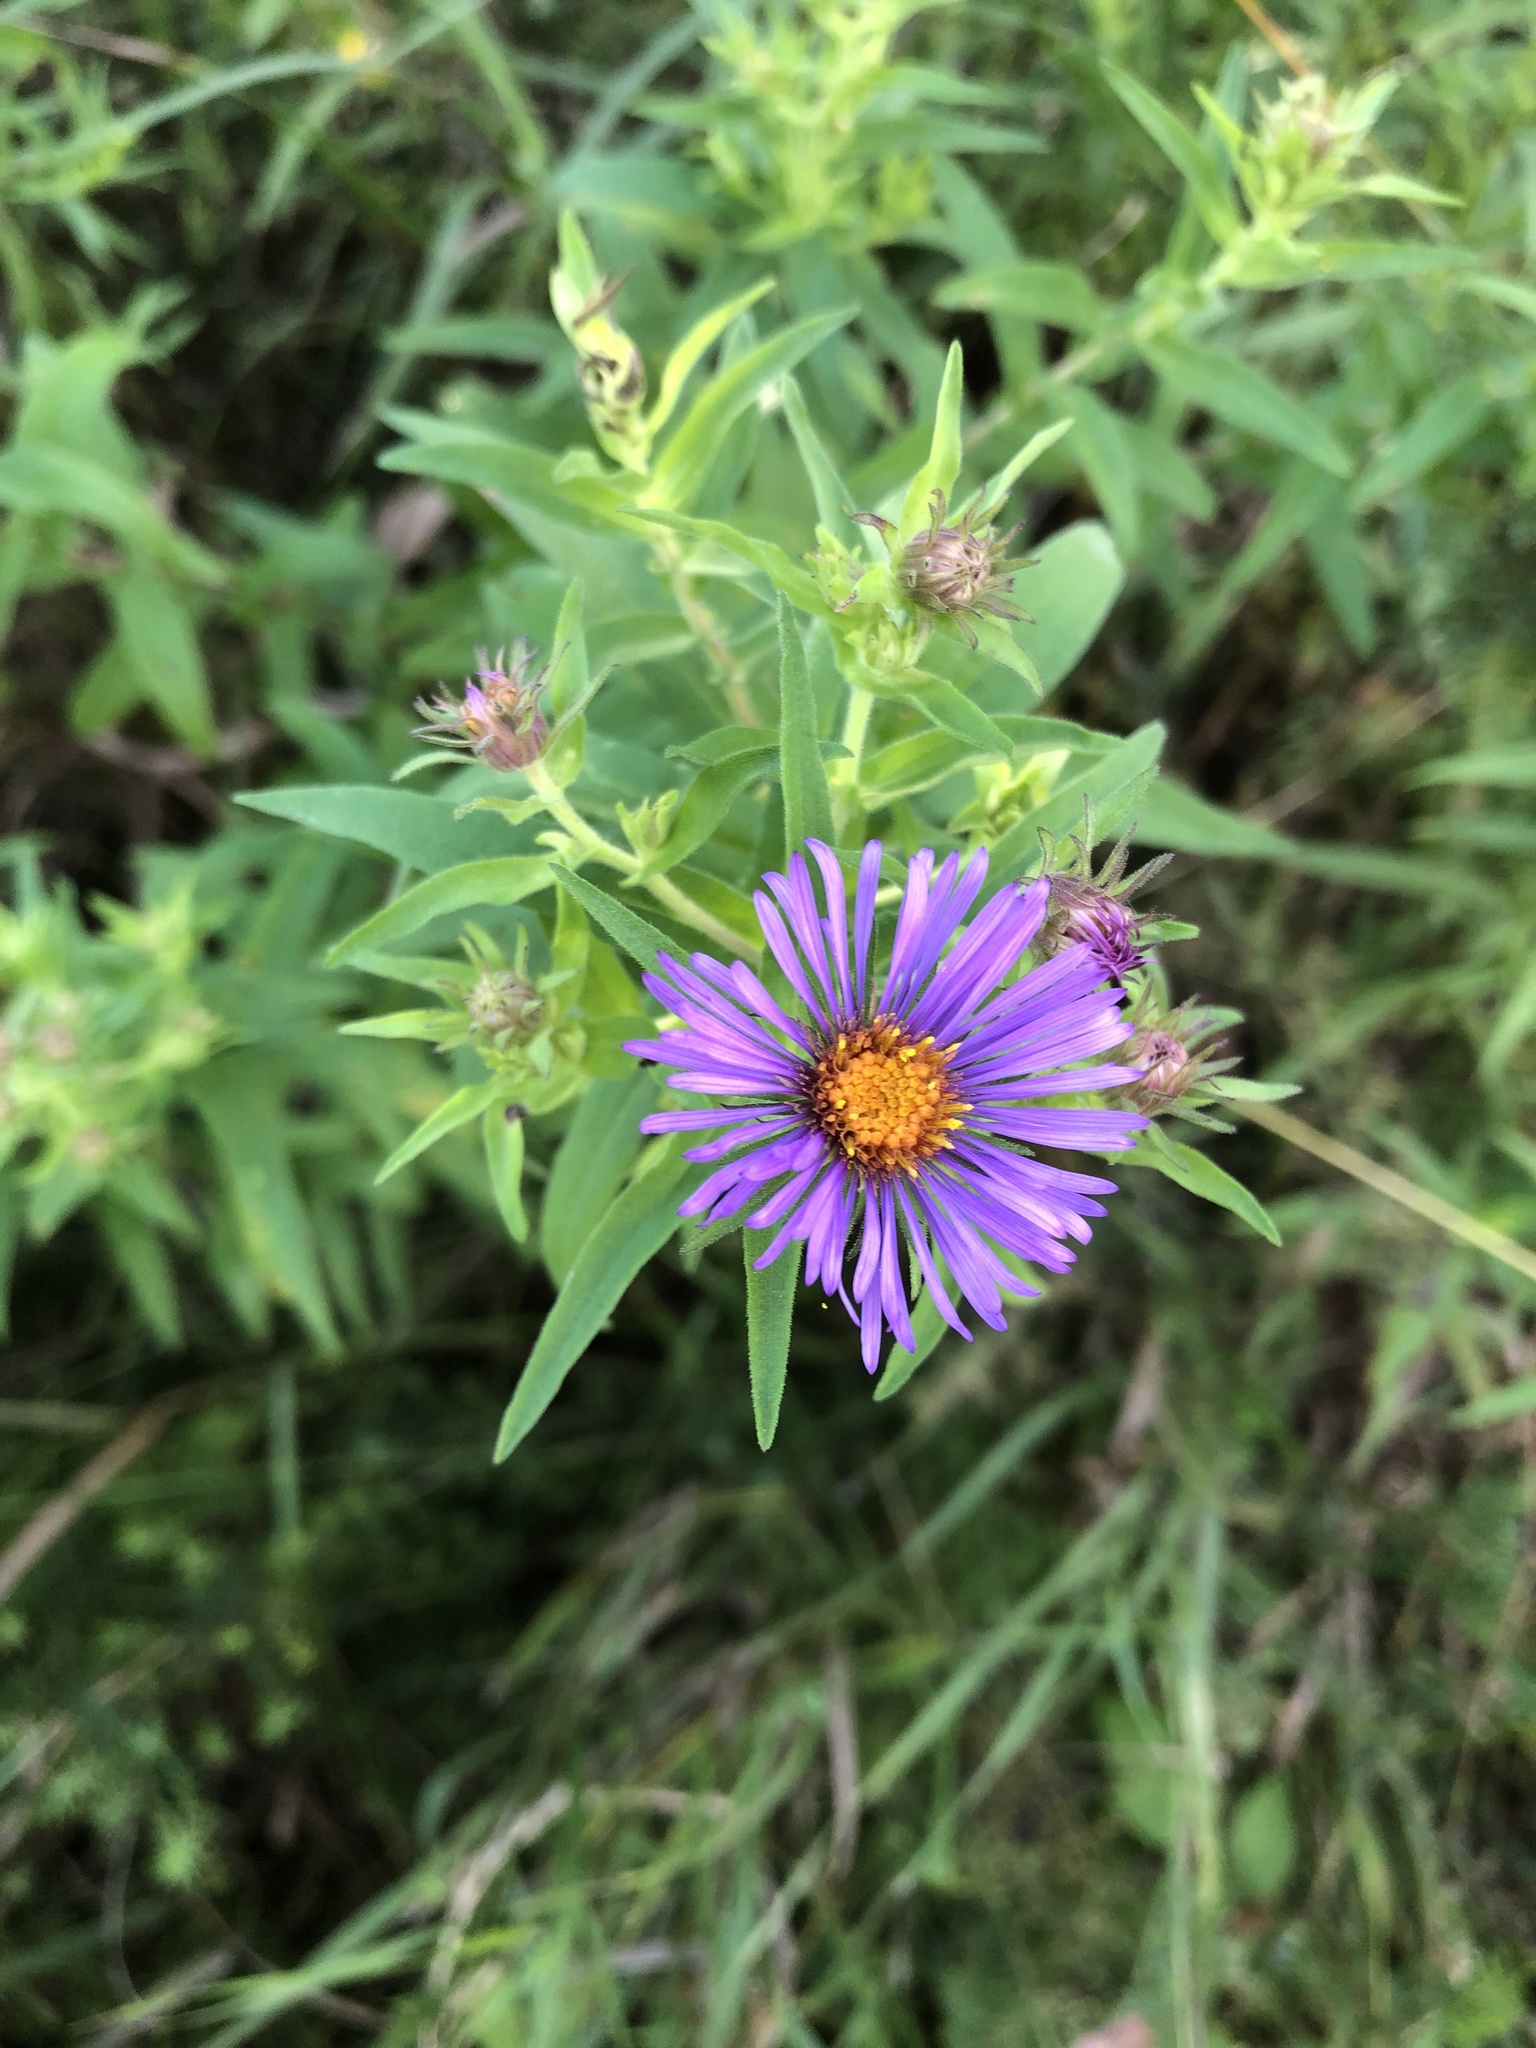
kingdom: Plantae
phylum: Tracheophyta
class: Magnoliopsida
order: Asterales
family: Asteraceae
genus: Symphyotrichum
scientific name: Symphyotrichum novae-angliae
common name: Michaelmas daisy
